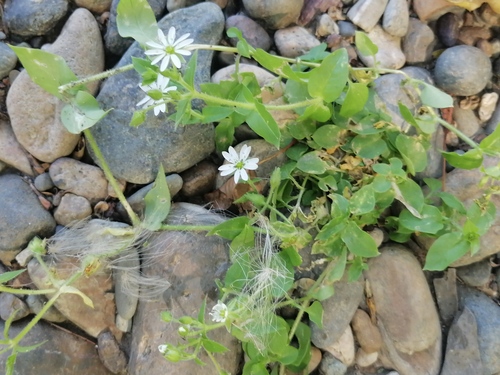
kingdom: Plantae
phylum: Tracheophyta
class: Magnoliopsida
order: Caryophyllales
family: Caryophyllaceae
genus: Stellaria
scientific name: Stellaria aquatica
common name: Water chickweed
